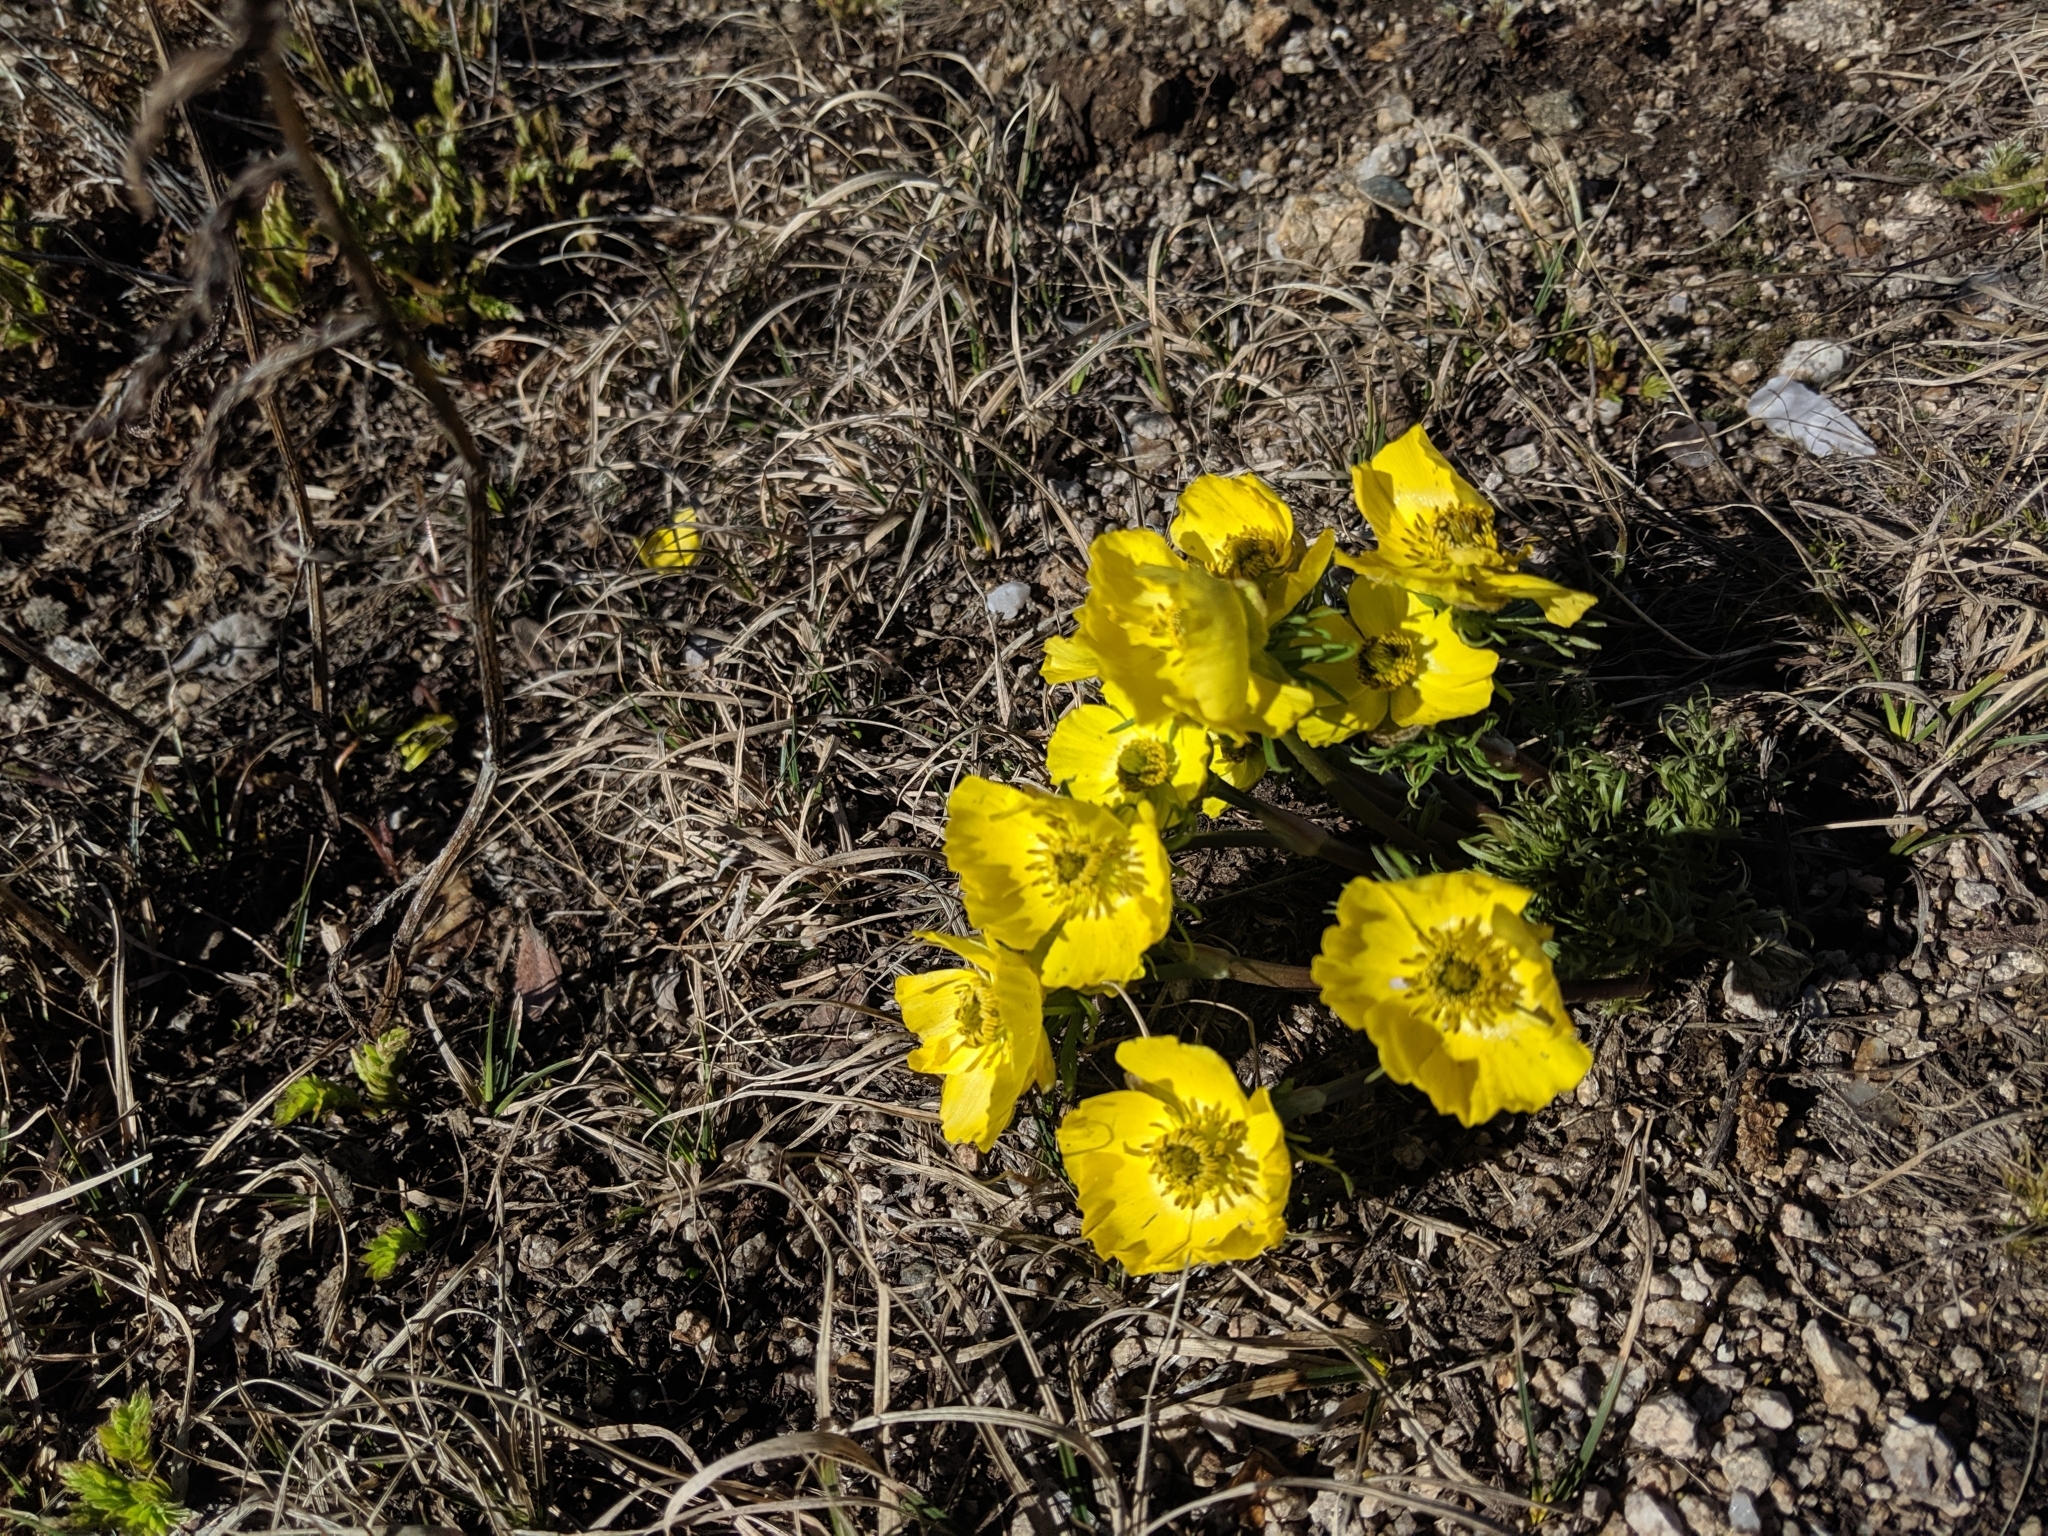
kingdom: Plantae
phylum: Tracheophyta
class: Magnoliopsida
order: Ranunculales
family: Ranunculaceae
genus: Ranunculus
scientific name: Ranunculus adoneus
